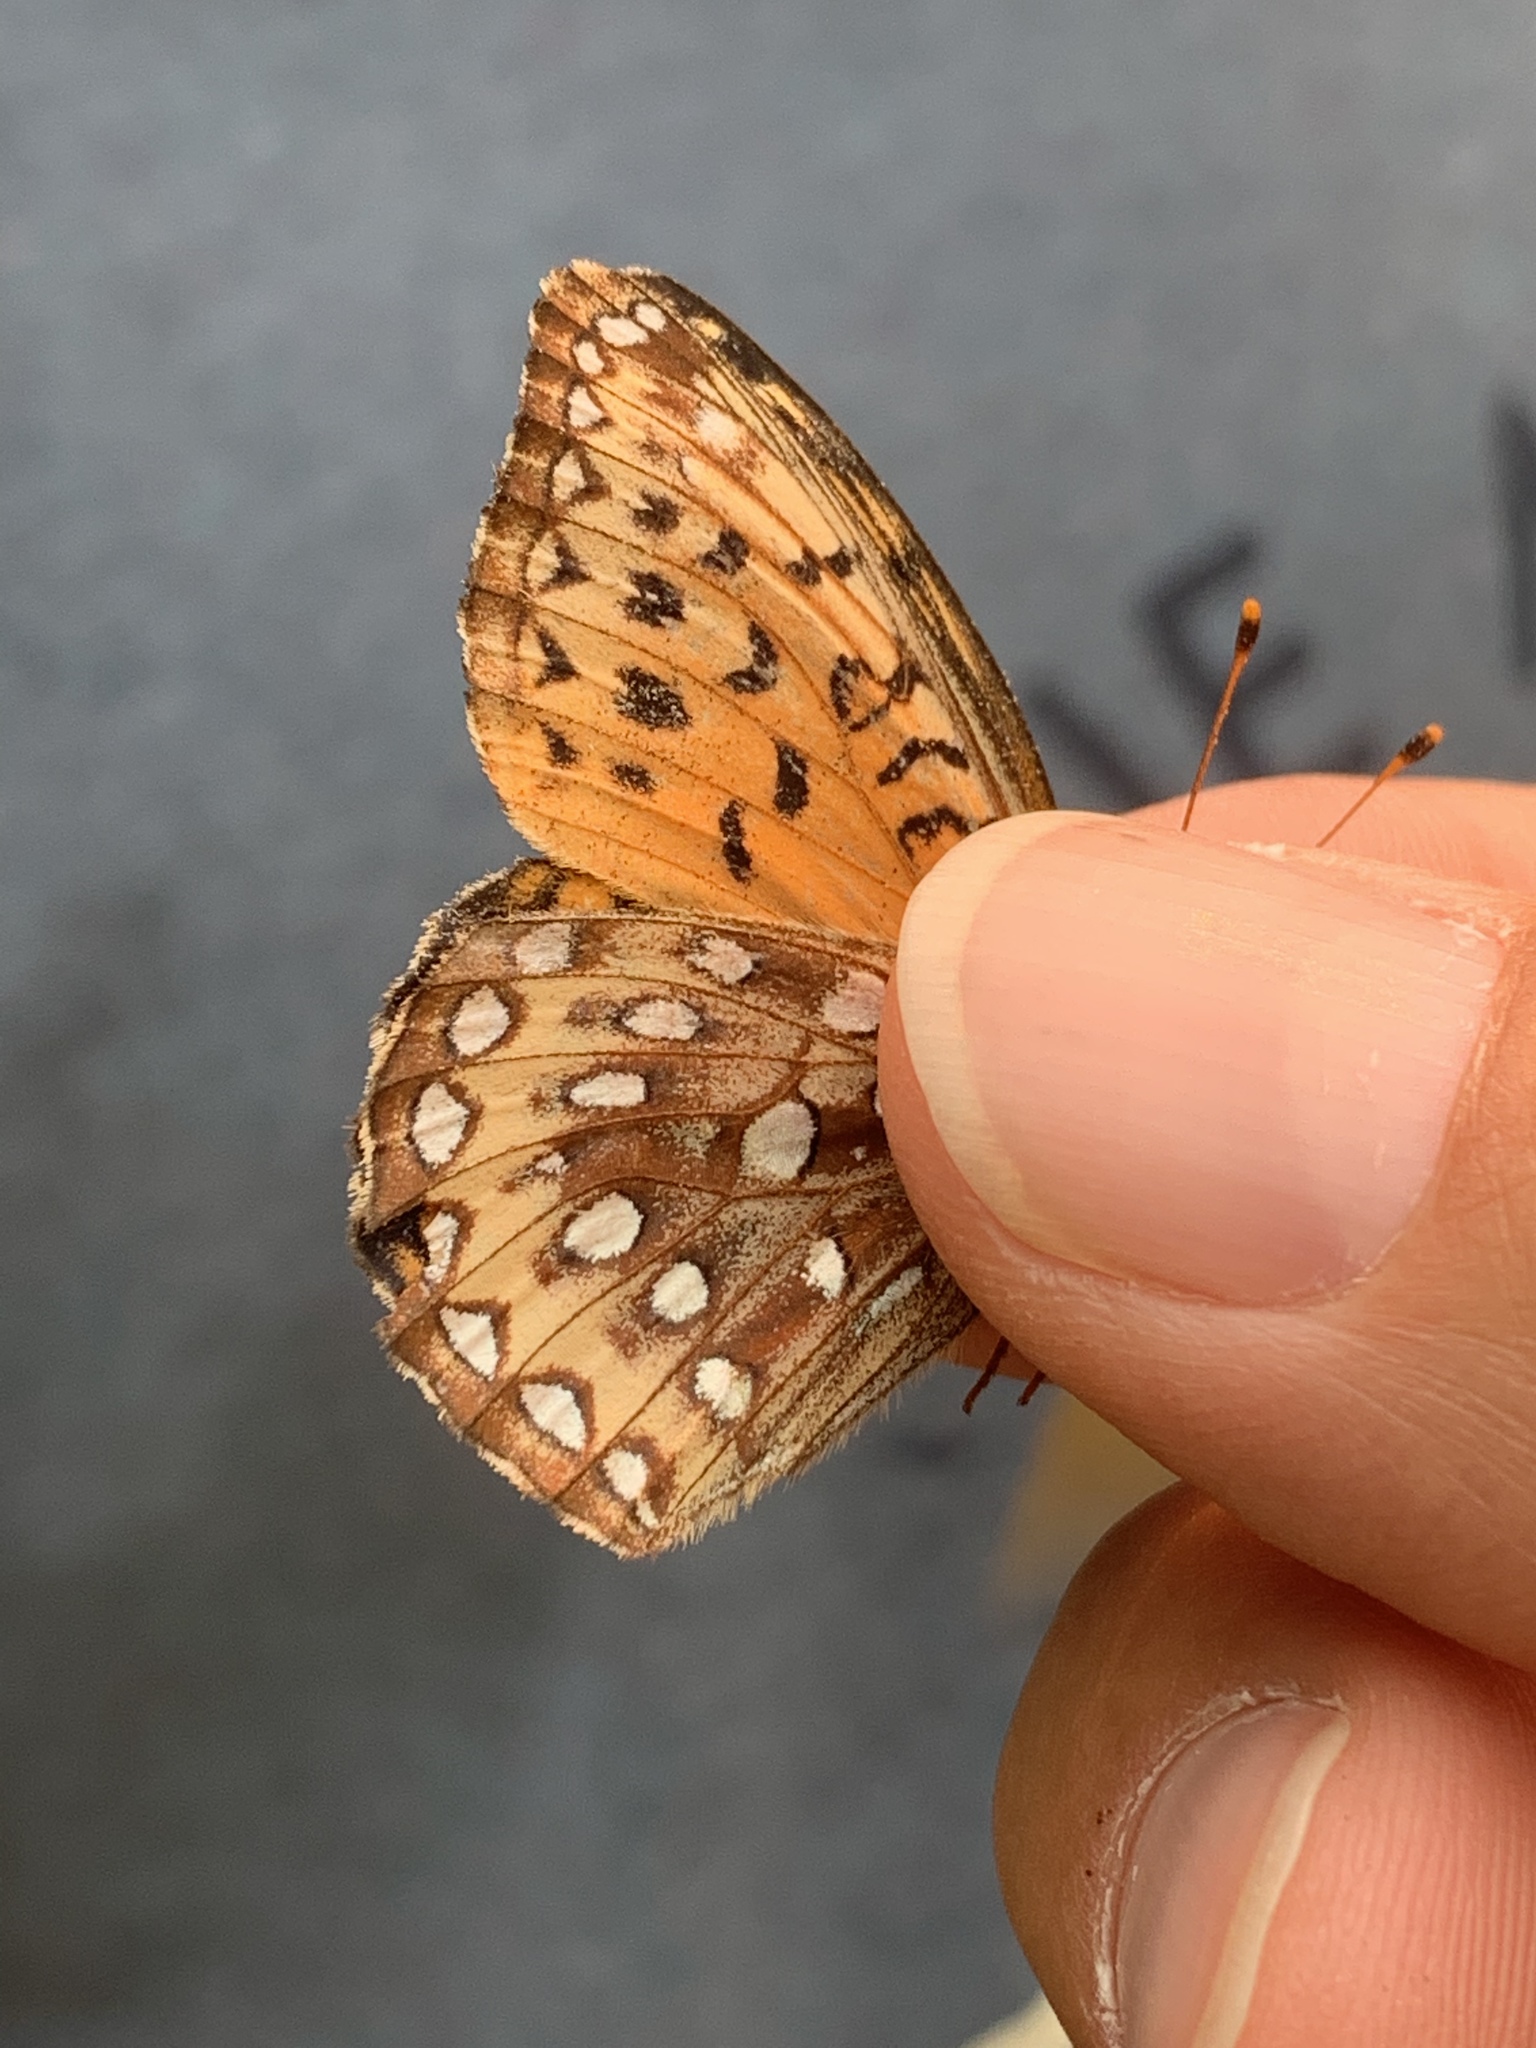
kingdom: Animalia
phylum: Arthropoda
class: Insecta
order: Lepidoptera
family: Nymphalidae
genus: Speyeria
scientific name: Speyeria atlantis
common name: Atlantis fritillary
